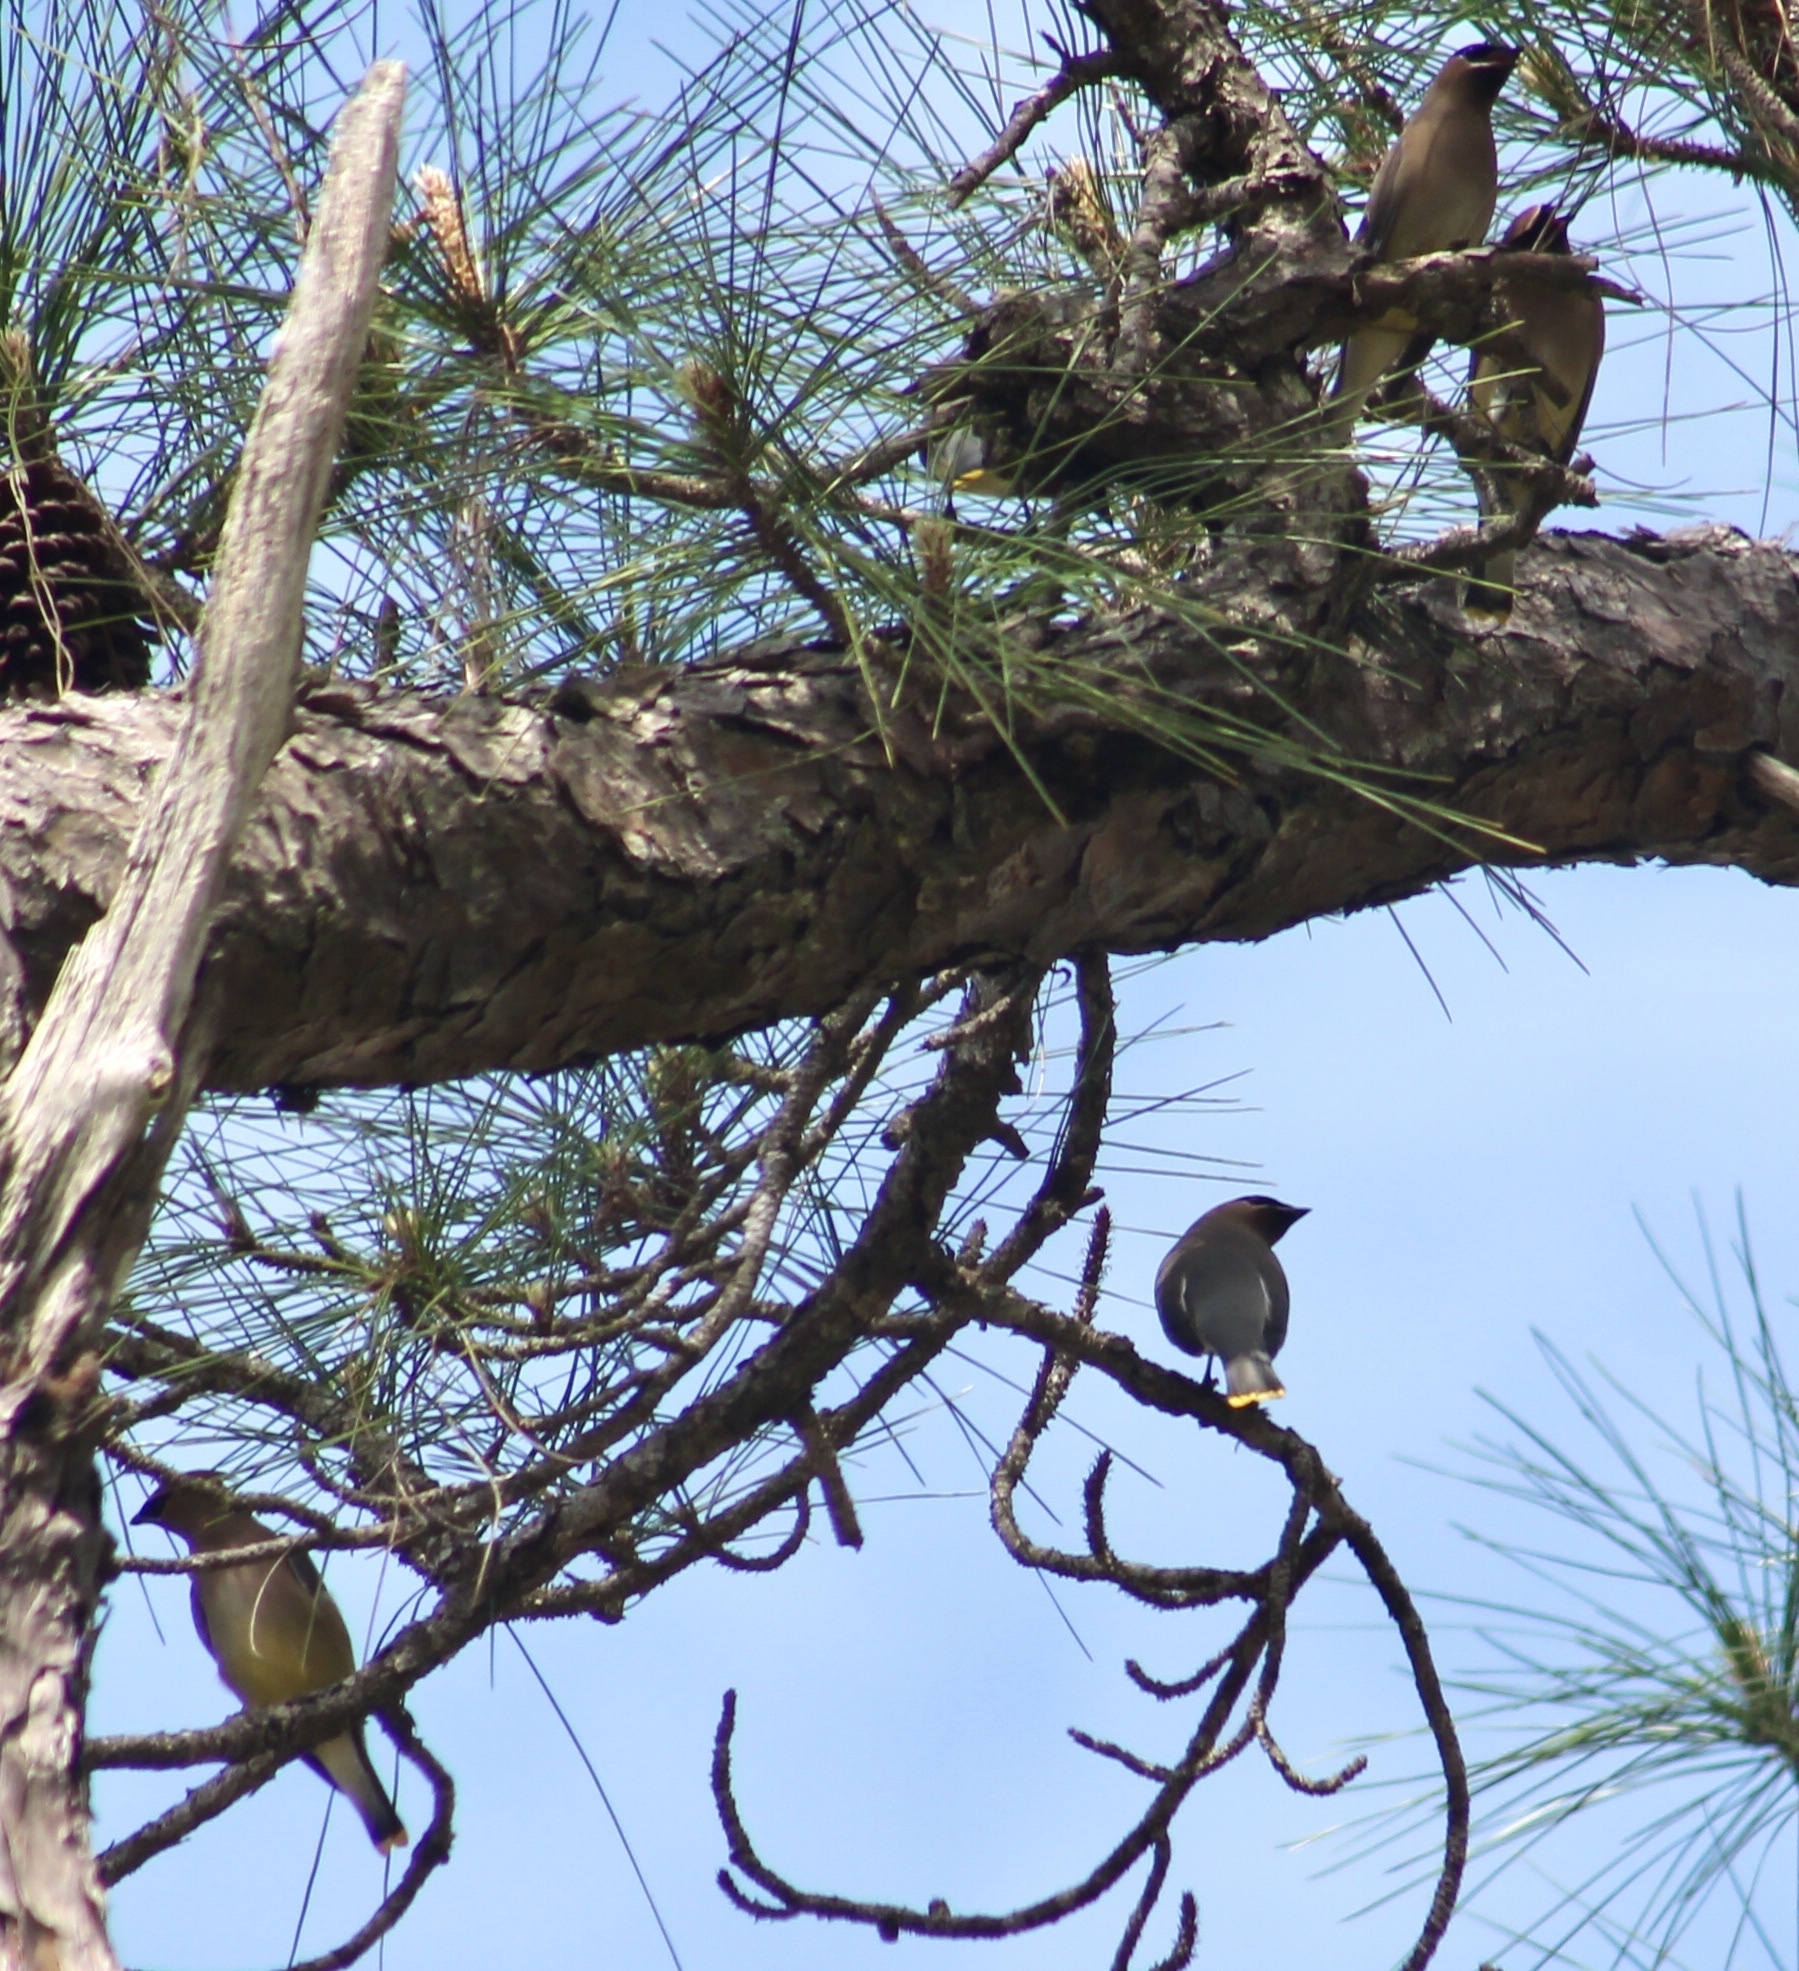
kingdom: Animalia
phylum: Chordata
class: Aves
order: Passeriformes
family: Bombycillidae
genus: Bombycilla
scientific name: Bombycilla cedrorum
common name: Cedar waxwing
